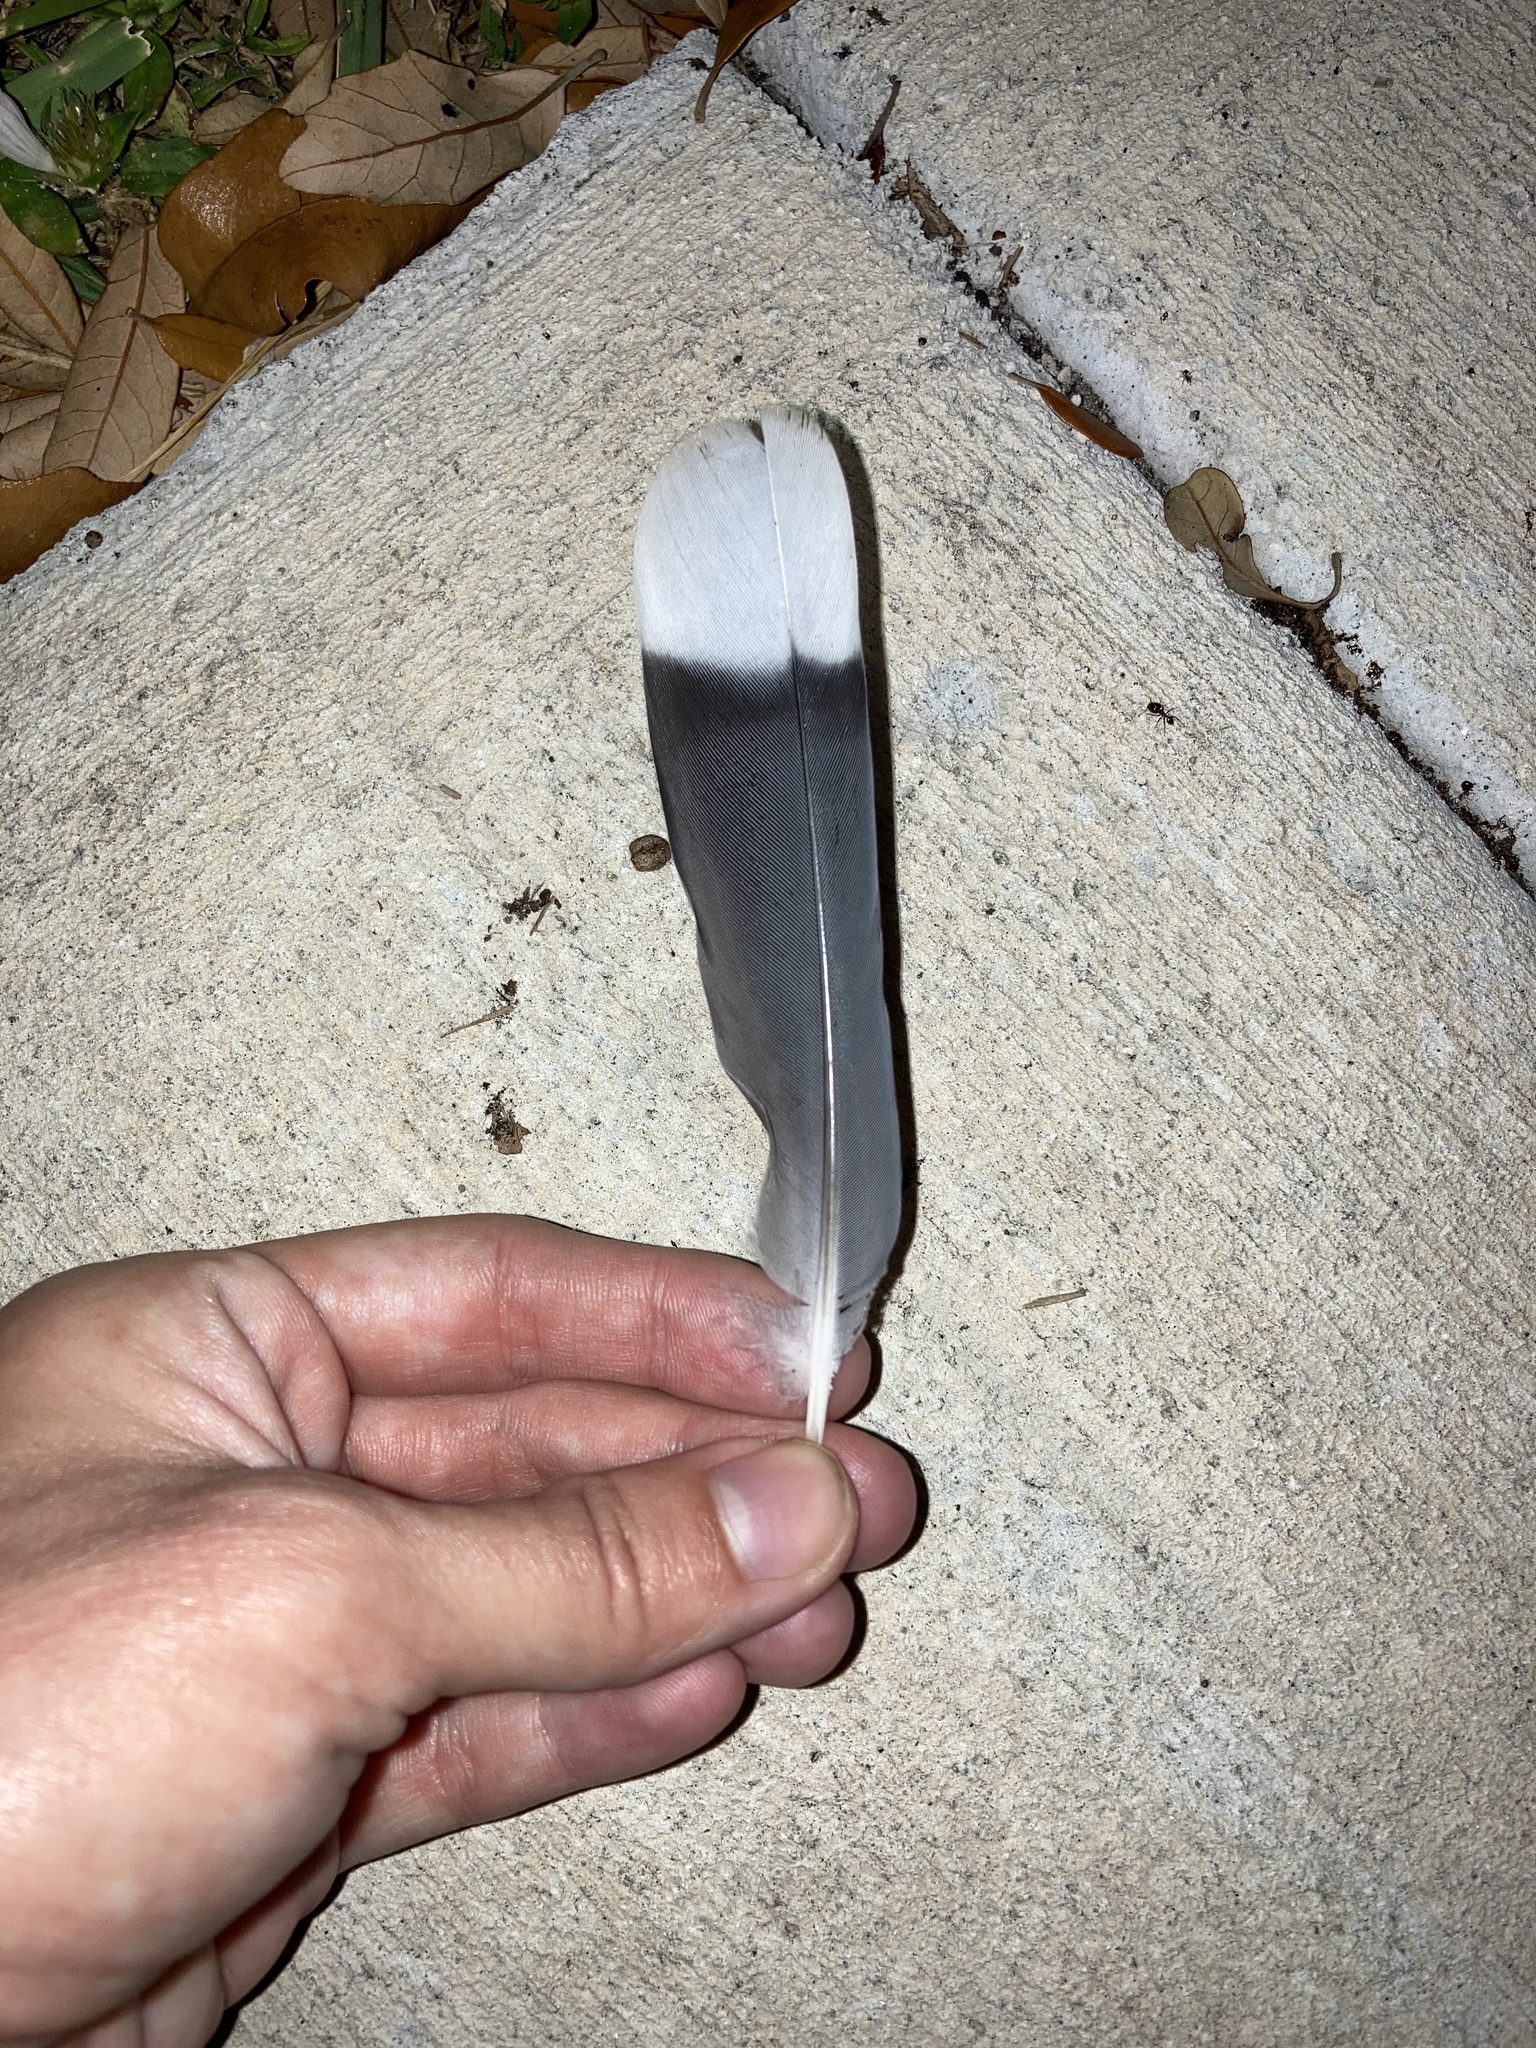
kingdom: Animalia
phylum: Chordata
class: Aves
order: Columbiformes
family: Columbidae
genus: Zenaida
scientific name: Zenaida asiatica
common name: White-winged dove
